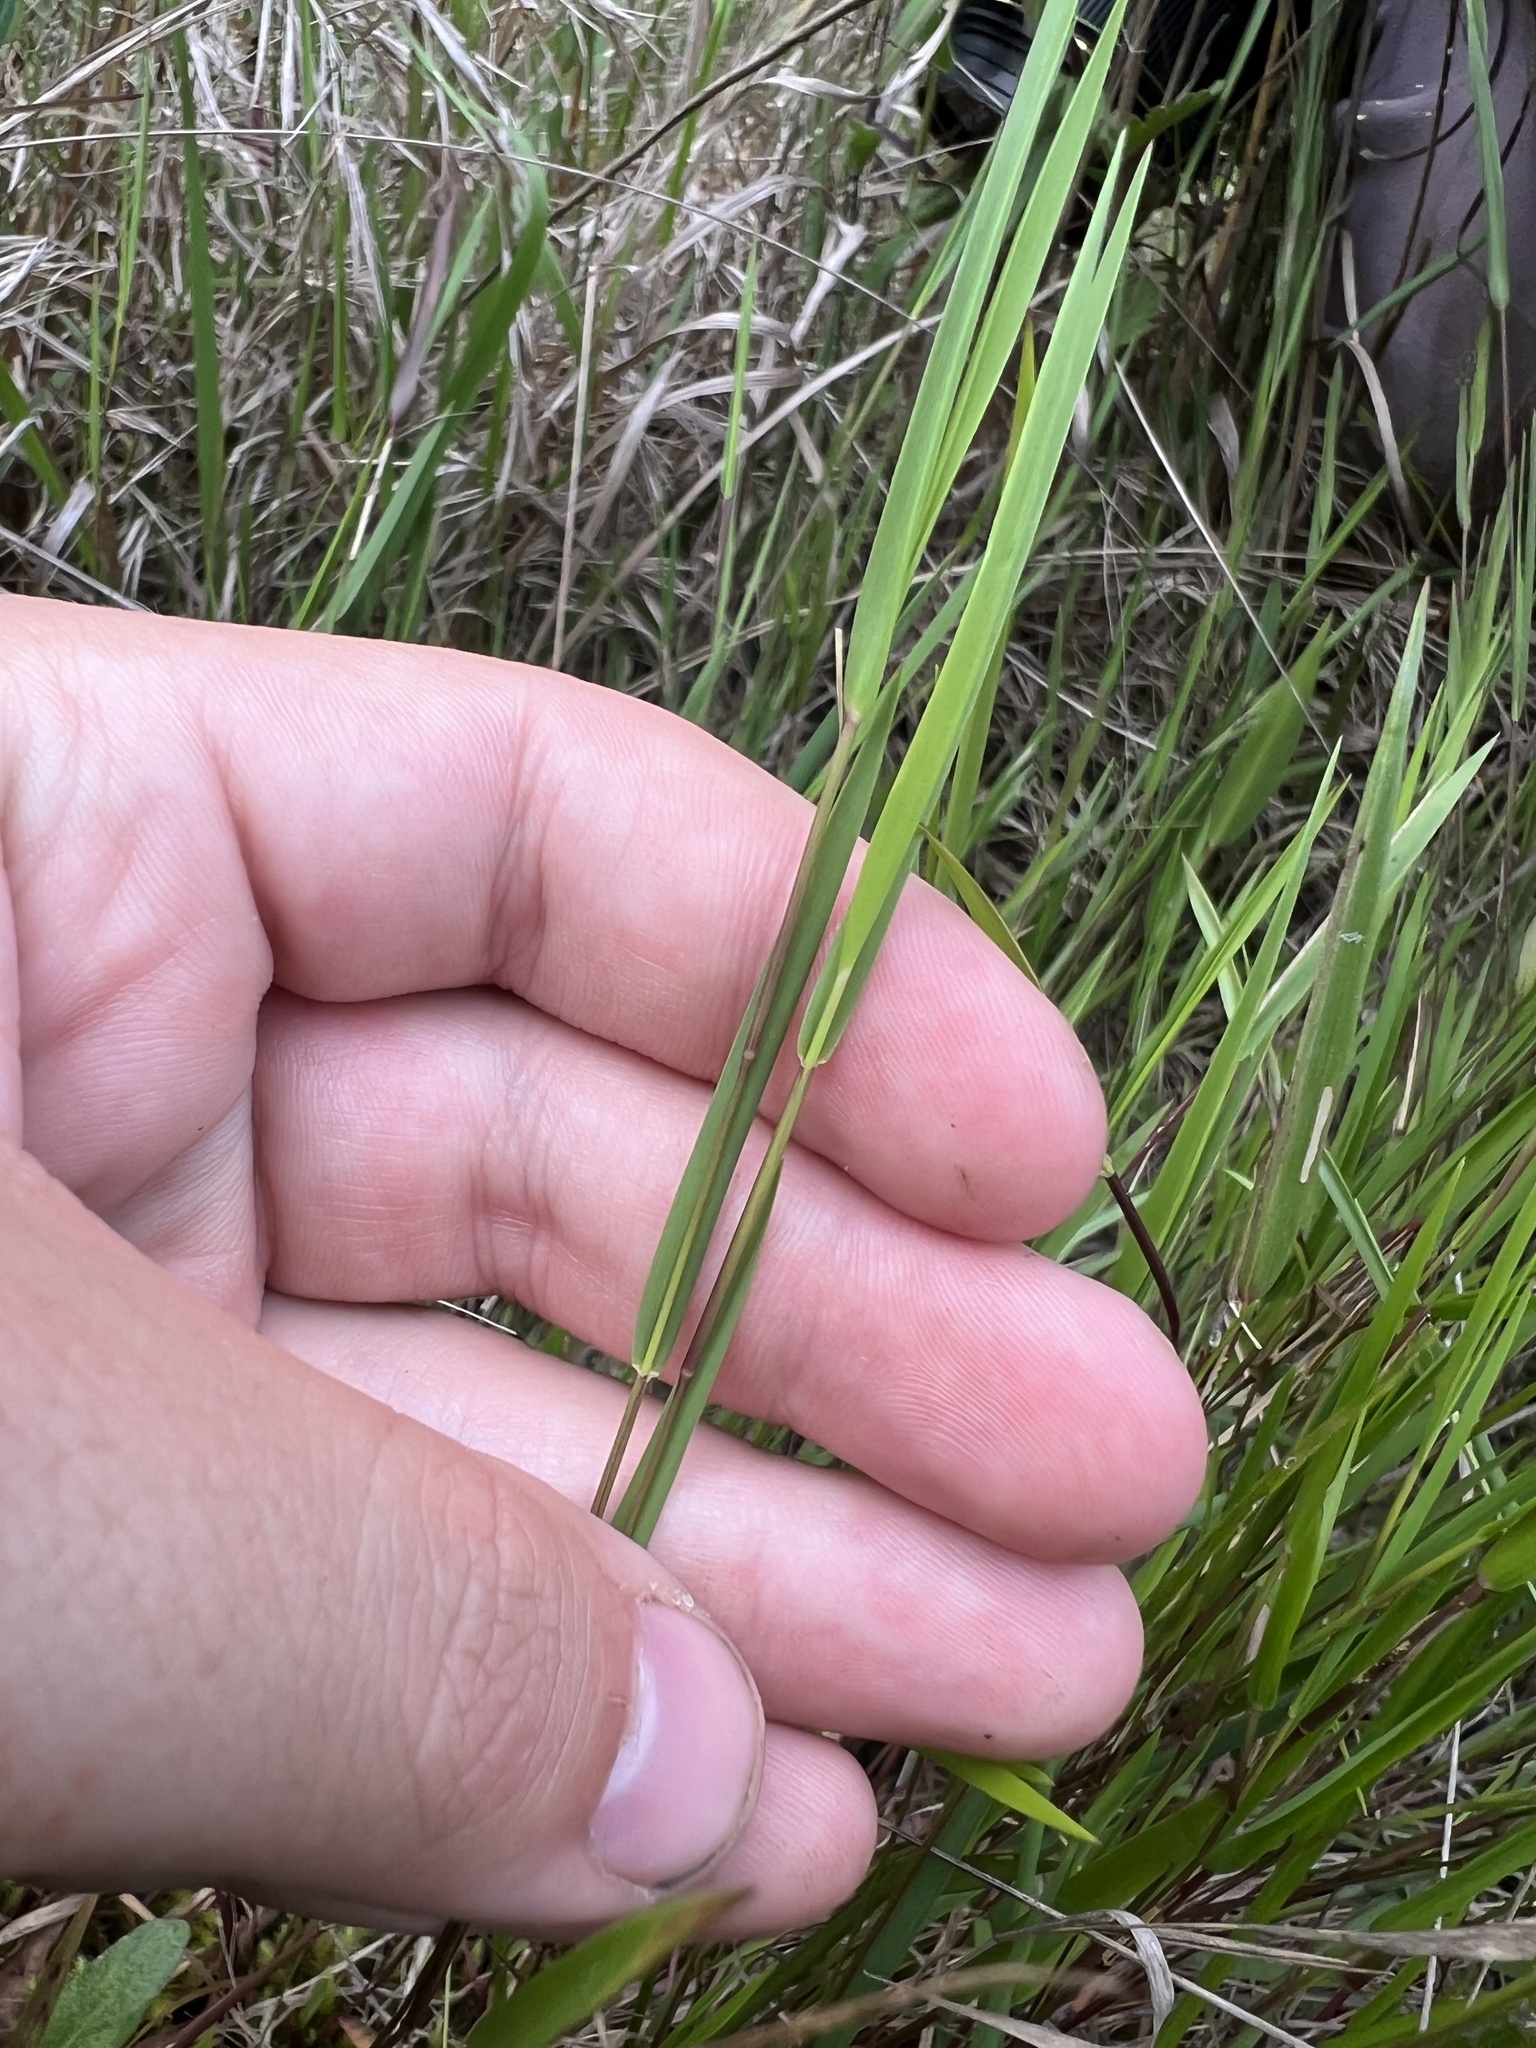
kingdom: Plantae
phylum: Tracheophyta
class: Liliopsida
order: Poales
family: Poaceae
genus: Dichanthelium
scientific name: Dichanthelium angustifolium
